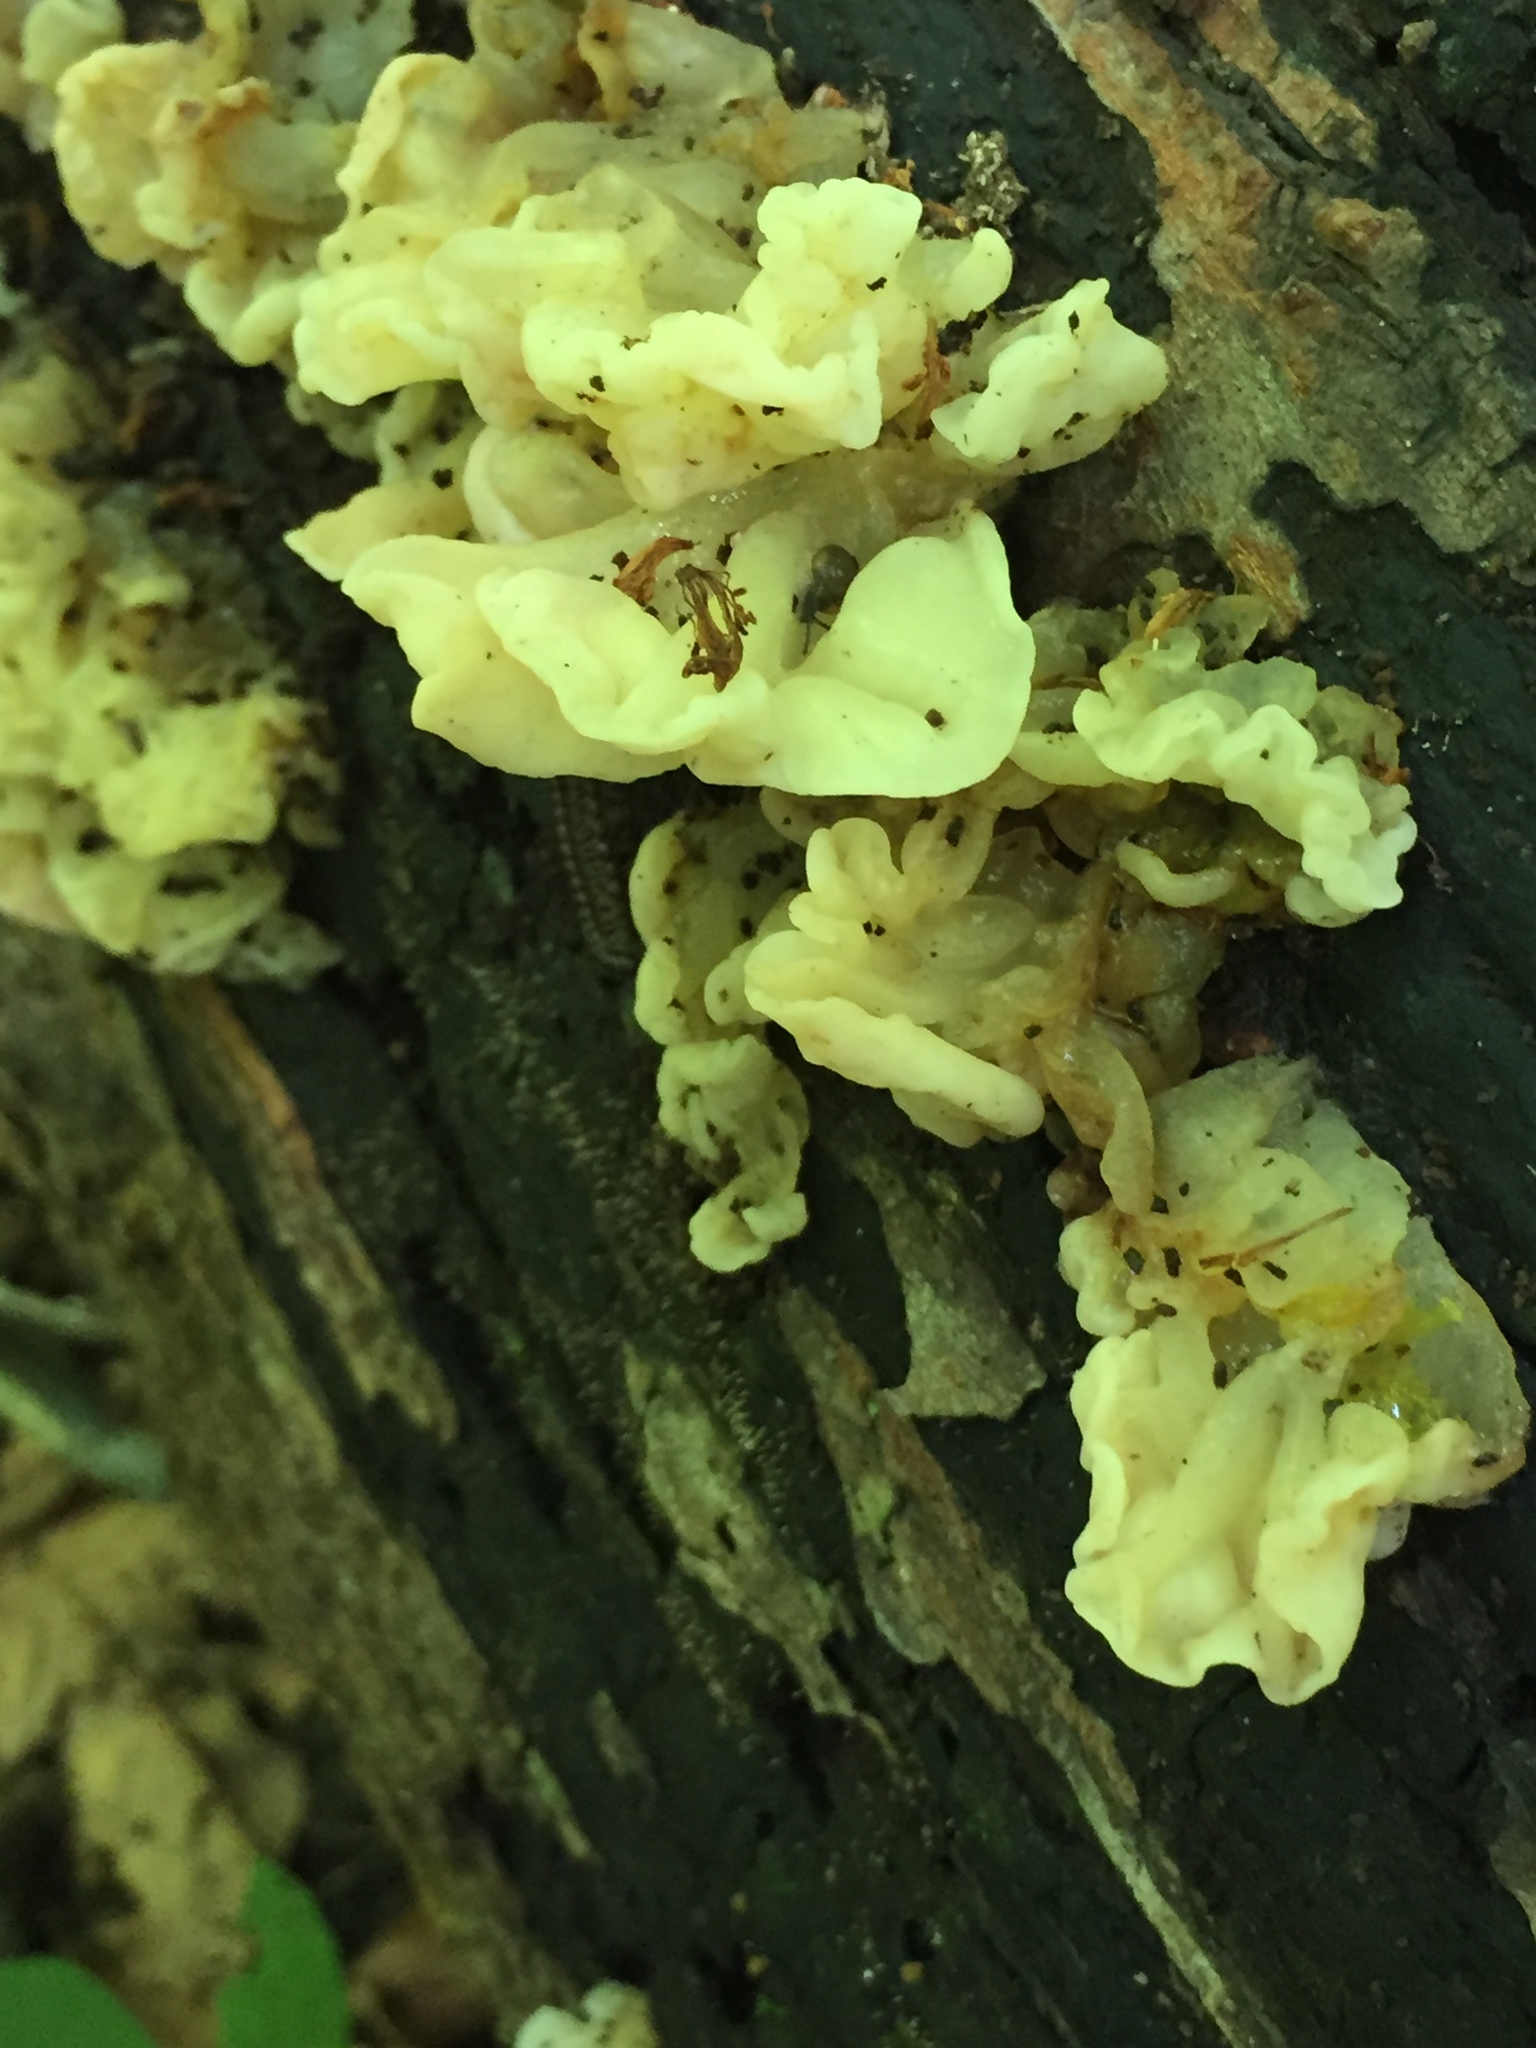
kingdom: Fungi
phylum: Basidiomycota
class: Agaricomycetes
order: Auriculariales
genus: Ductifera
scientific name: Ductifera pululahuana
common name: White jelly fungus
